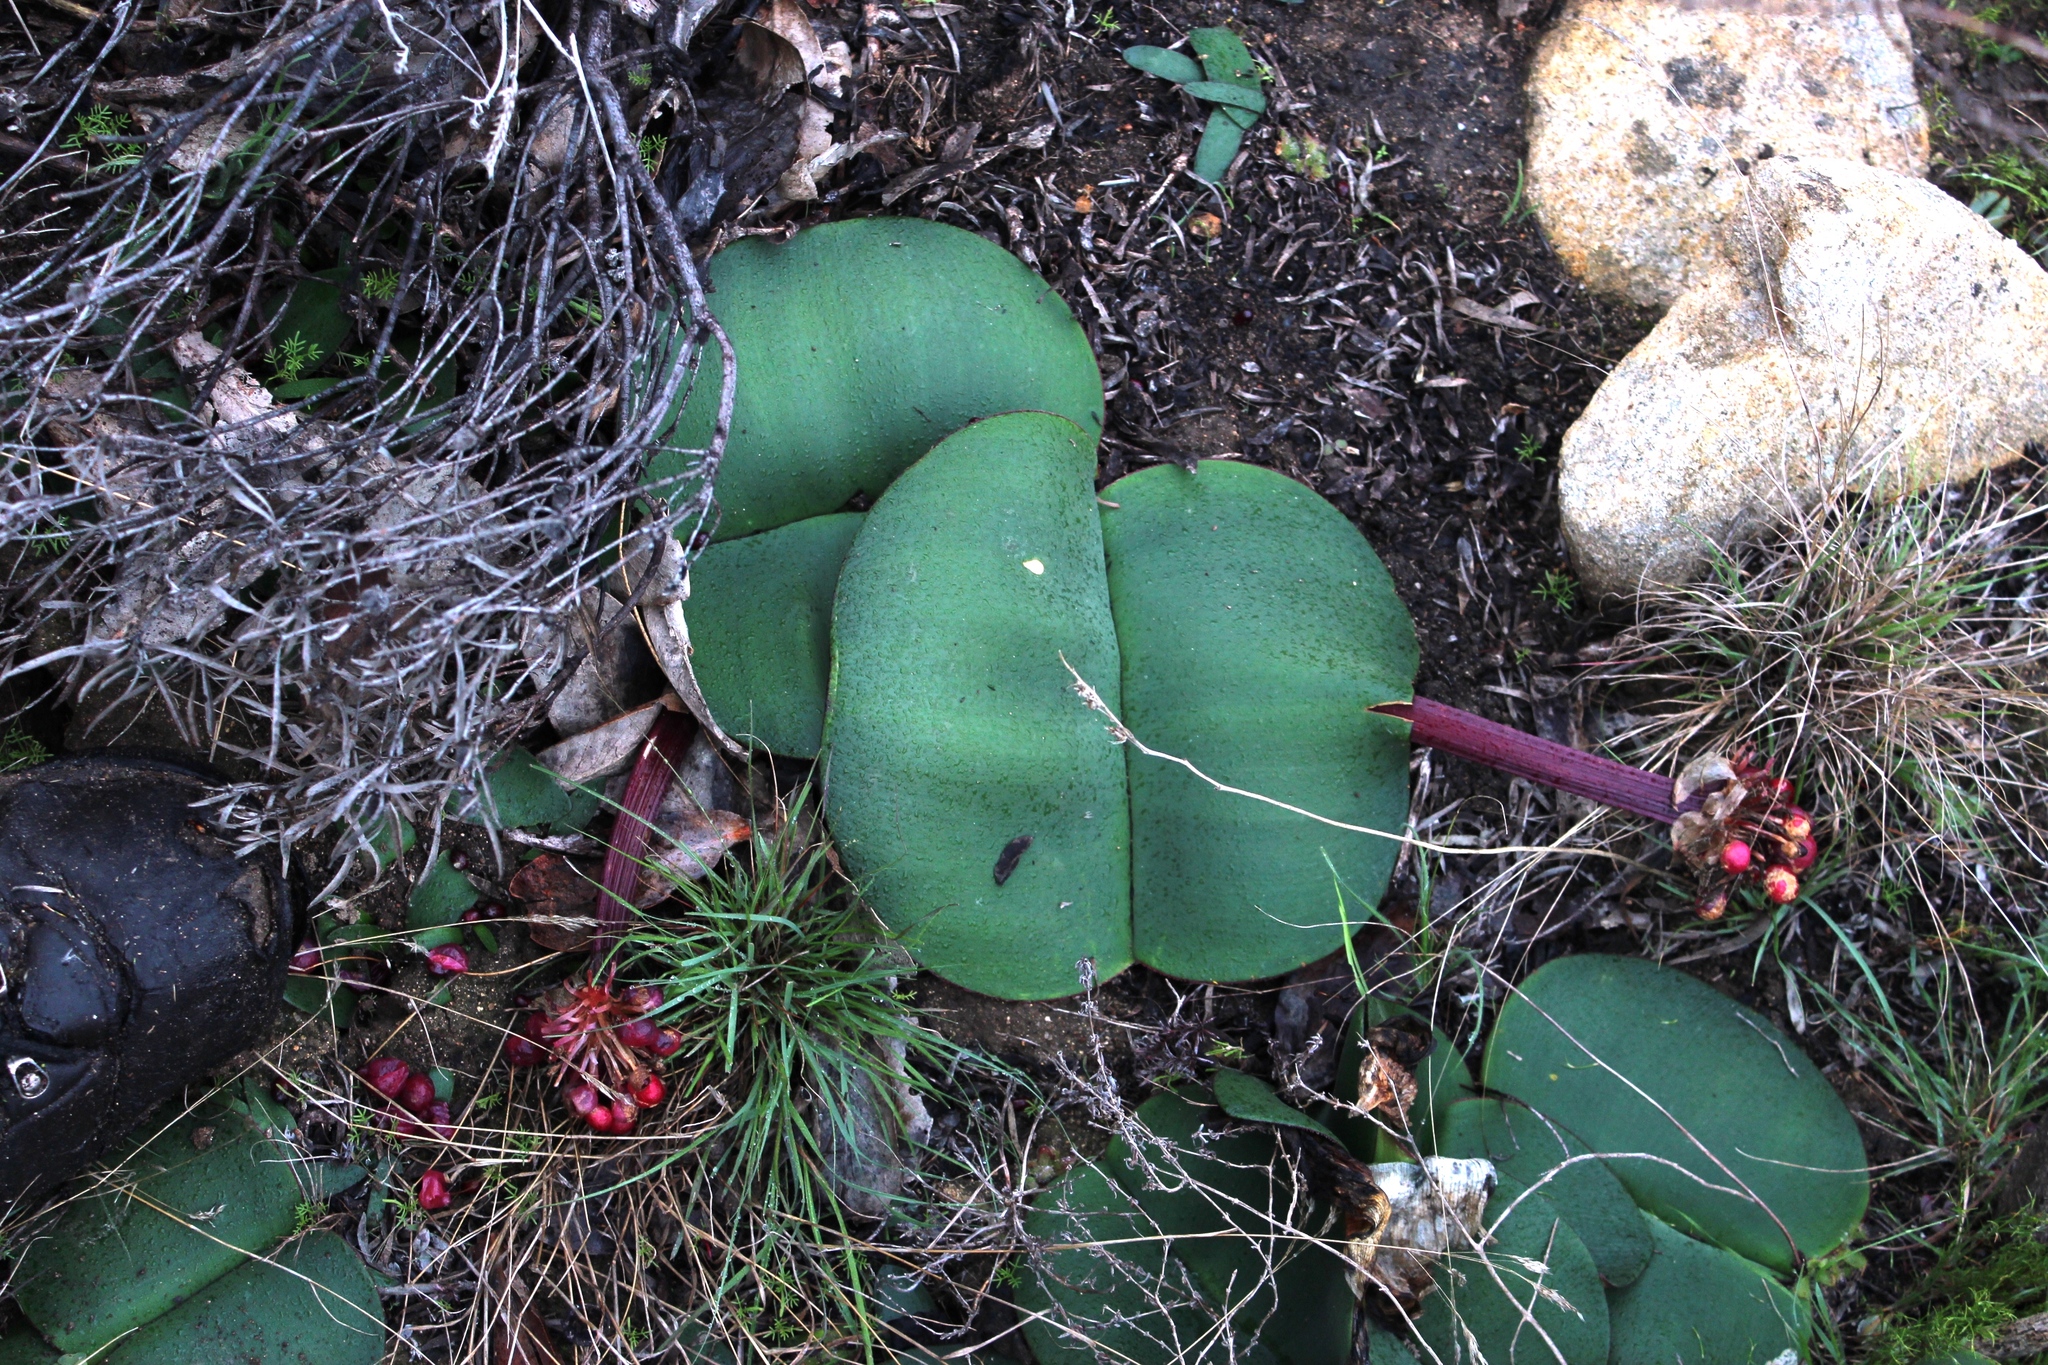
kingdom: Plantae
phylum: Tracheophyta
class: Liliopsida
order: Asparagales
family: Amaryllidaceae
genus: Haemanthus
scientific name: Haemanthus sanguineus
